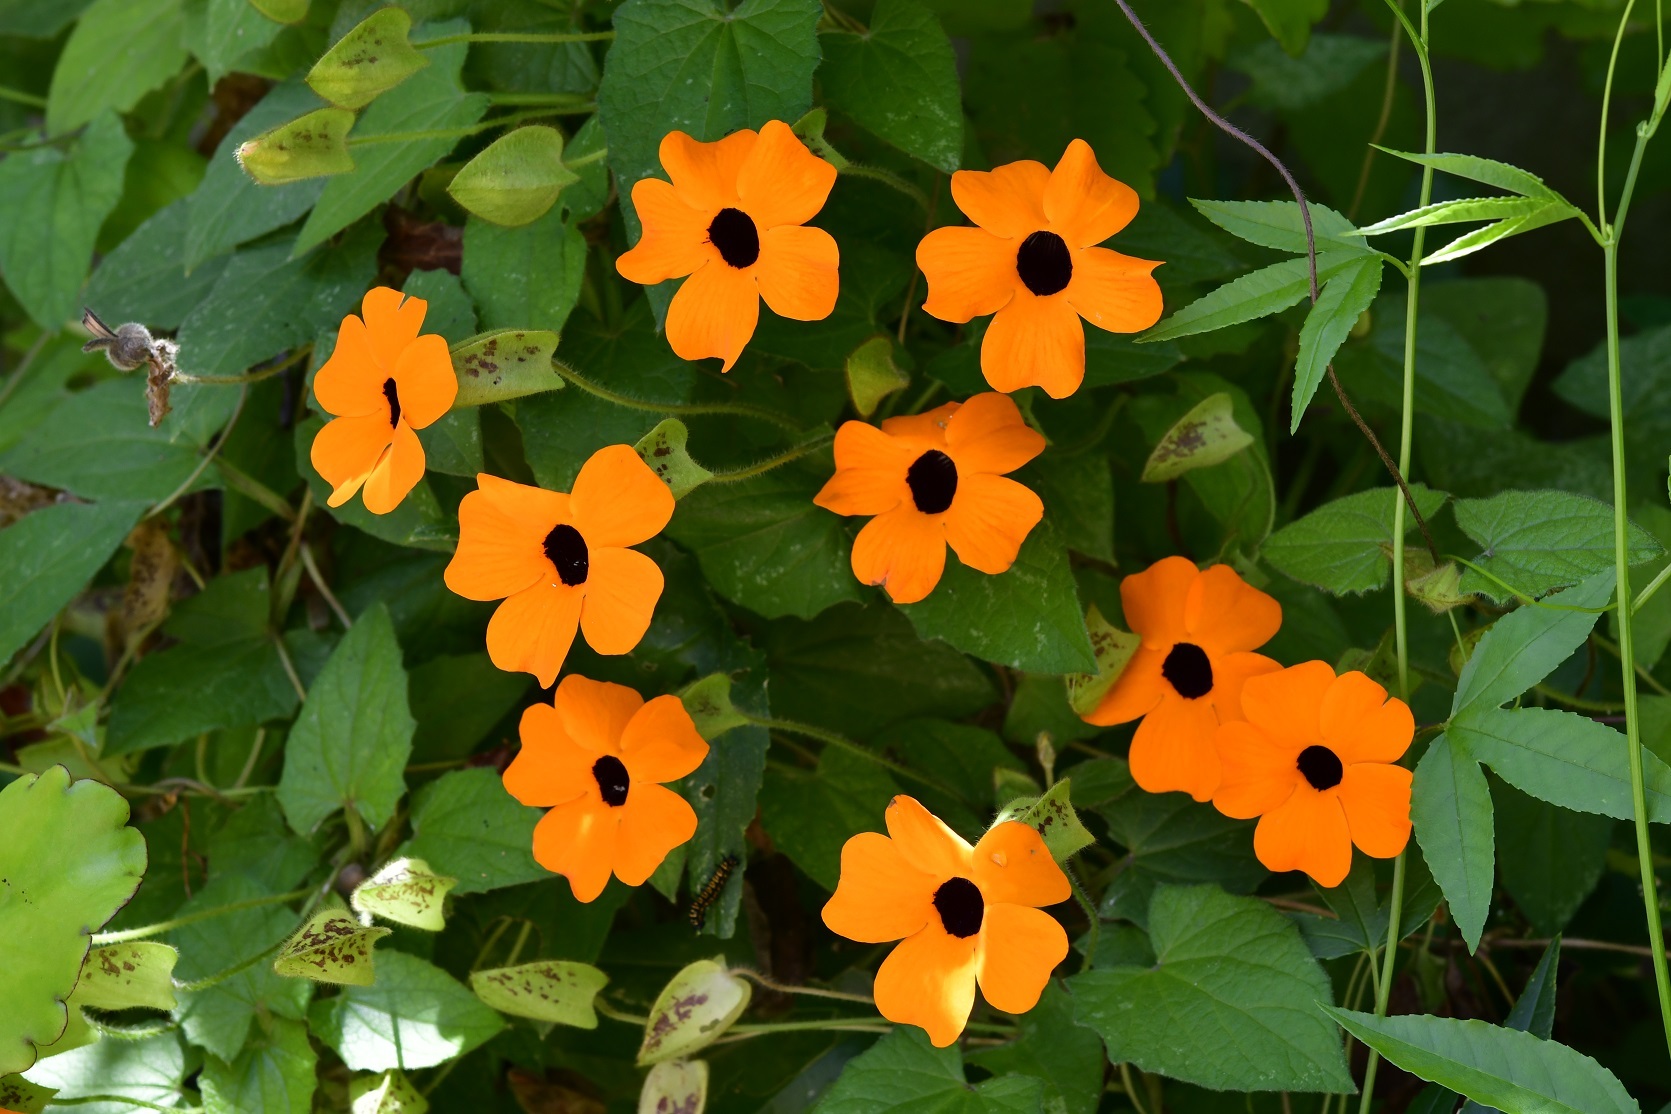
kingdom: Plantae
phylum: Tracheophyta
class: Magnoliopsida
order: Lamiales
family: Acanthaceae
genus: Thunbergia
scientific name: Thunbergia alata
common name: Blackeyed susan vine
